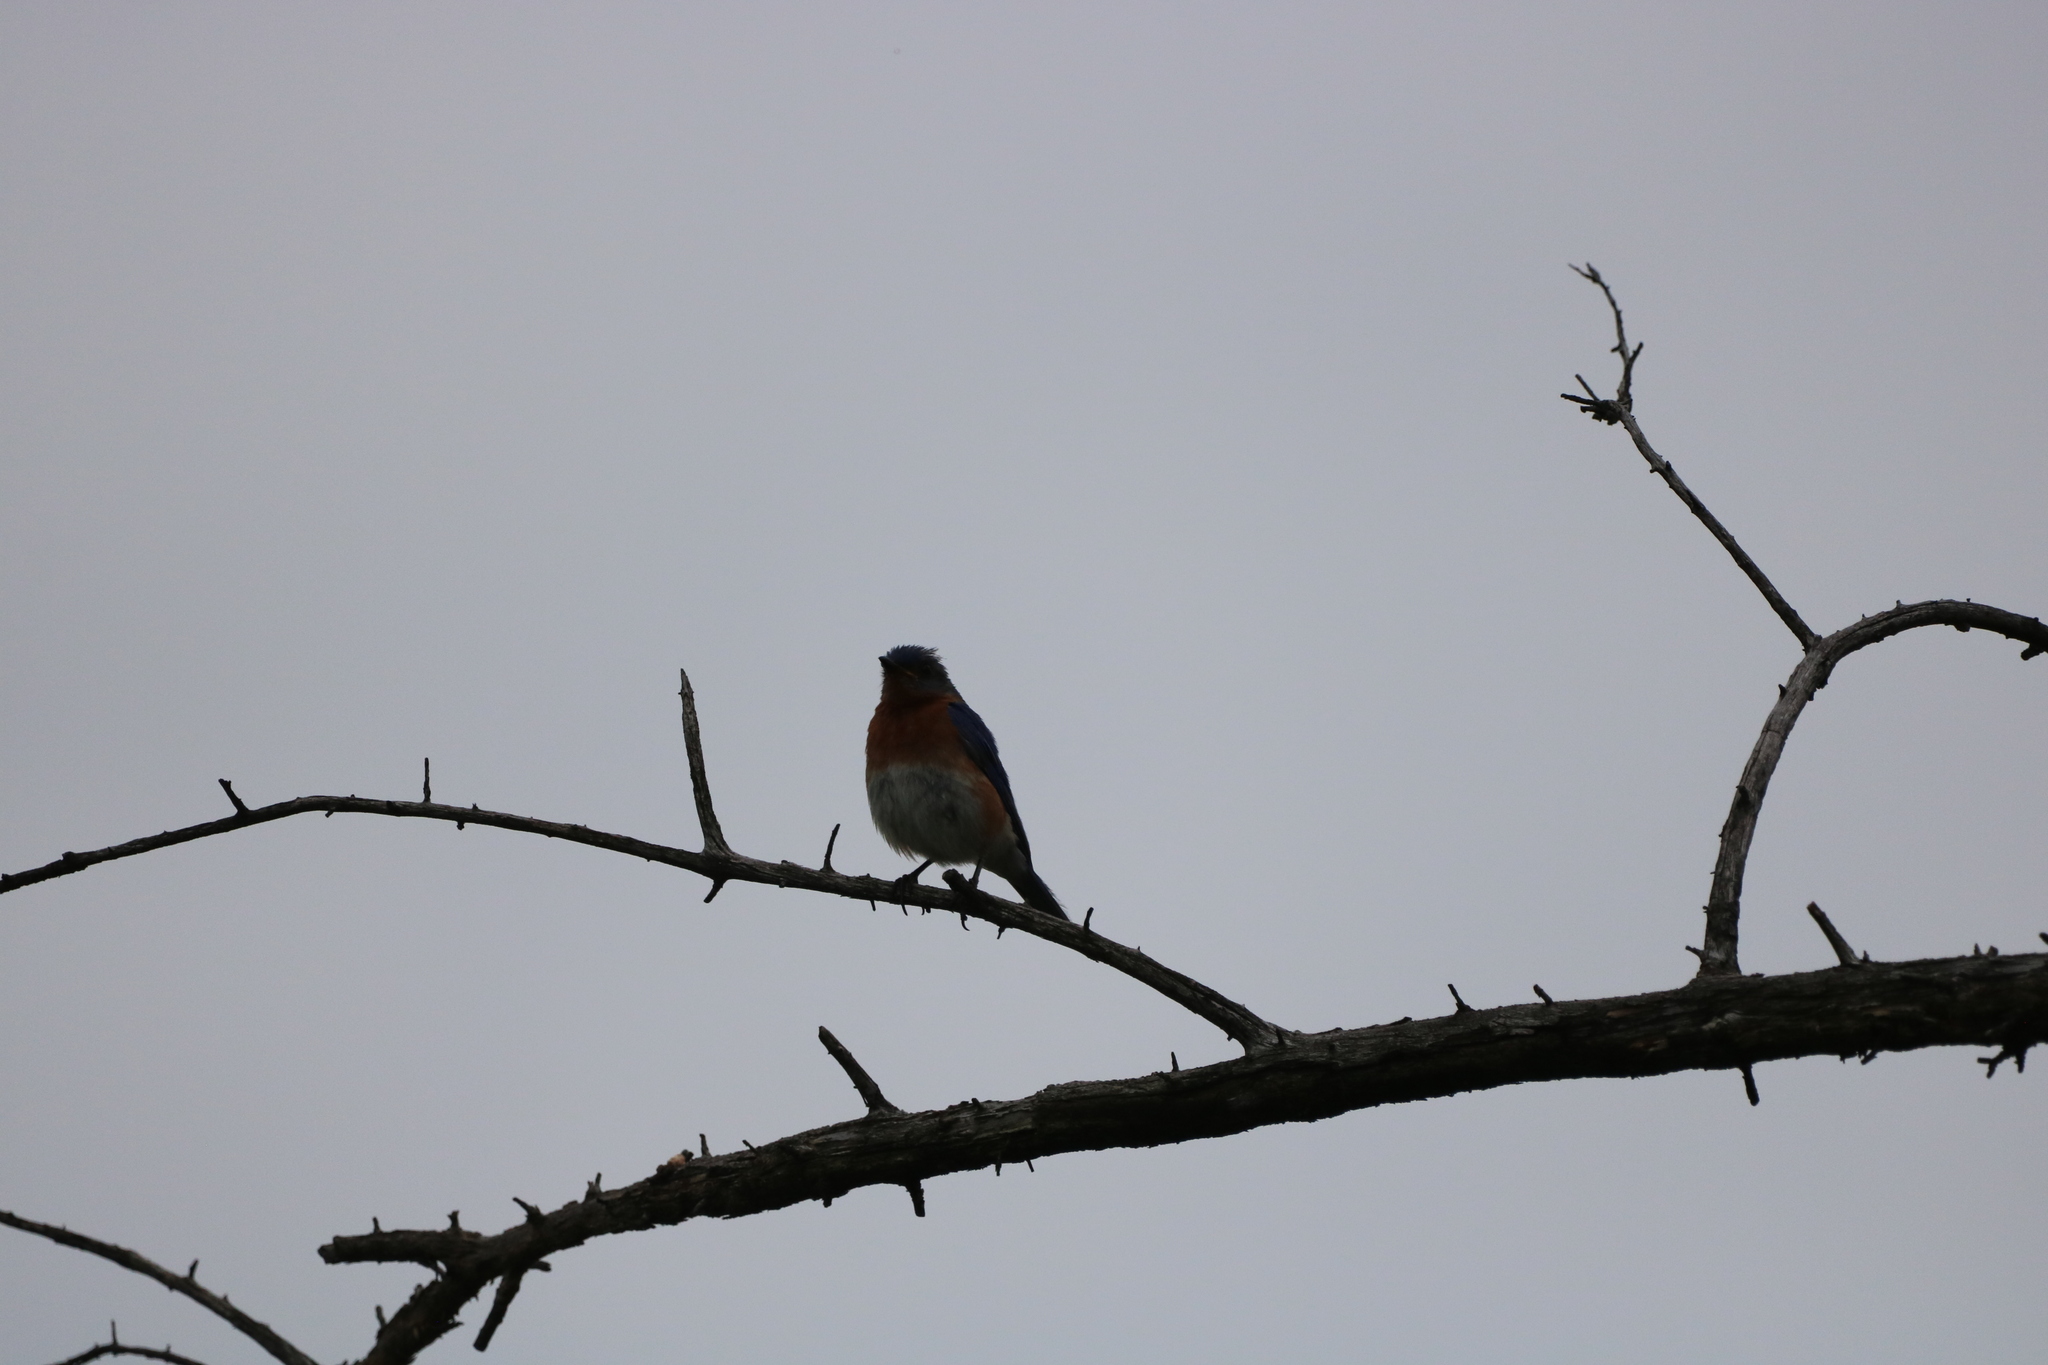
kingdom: Animalia
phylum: Chordata
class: Aves
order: Passeriformes
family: Turdidae
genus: Sialia
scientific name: Sialia sialis
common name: Eastern bluebird
